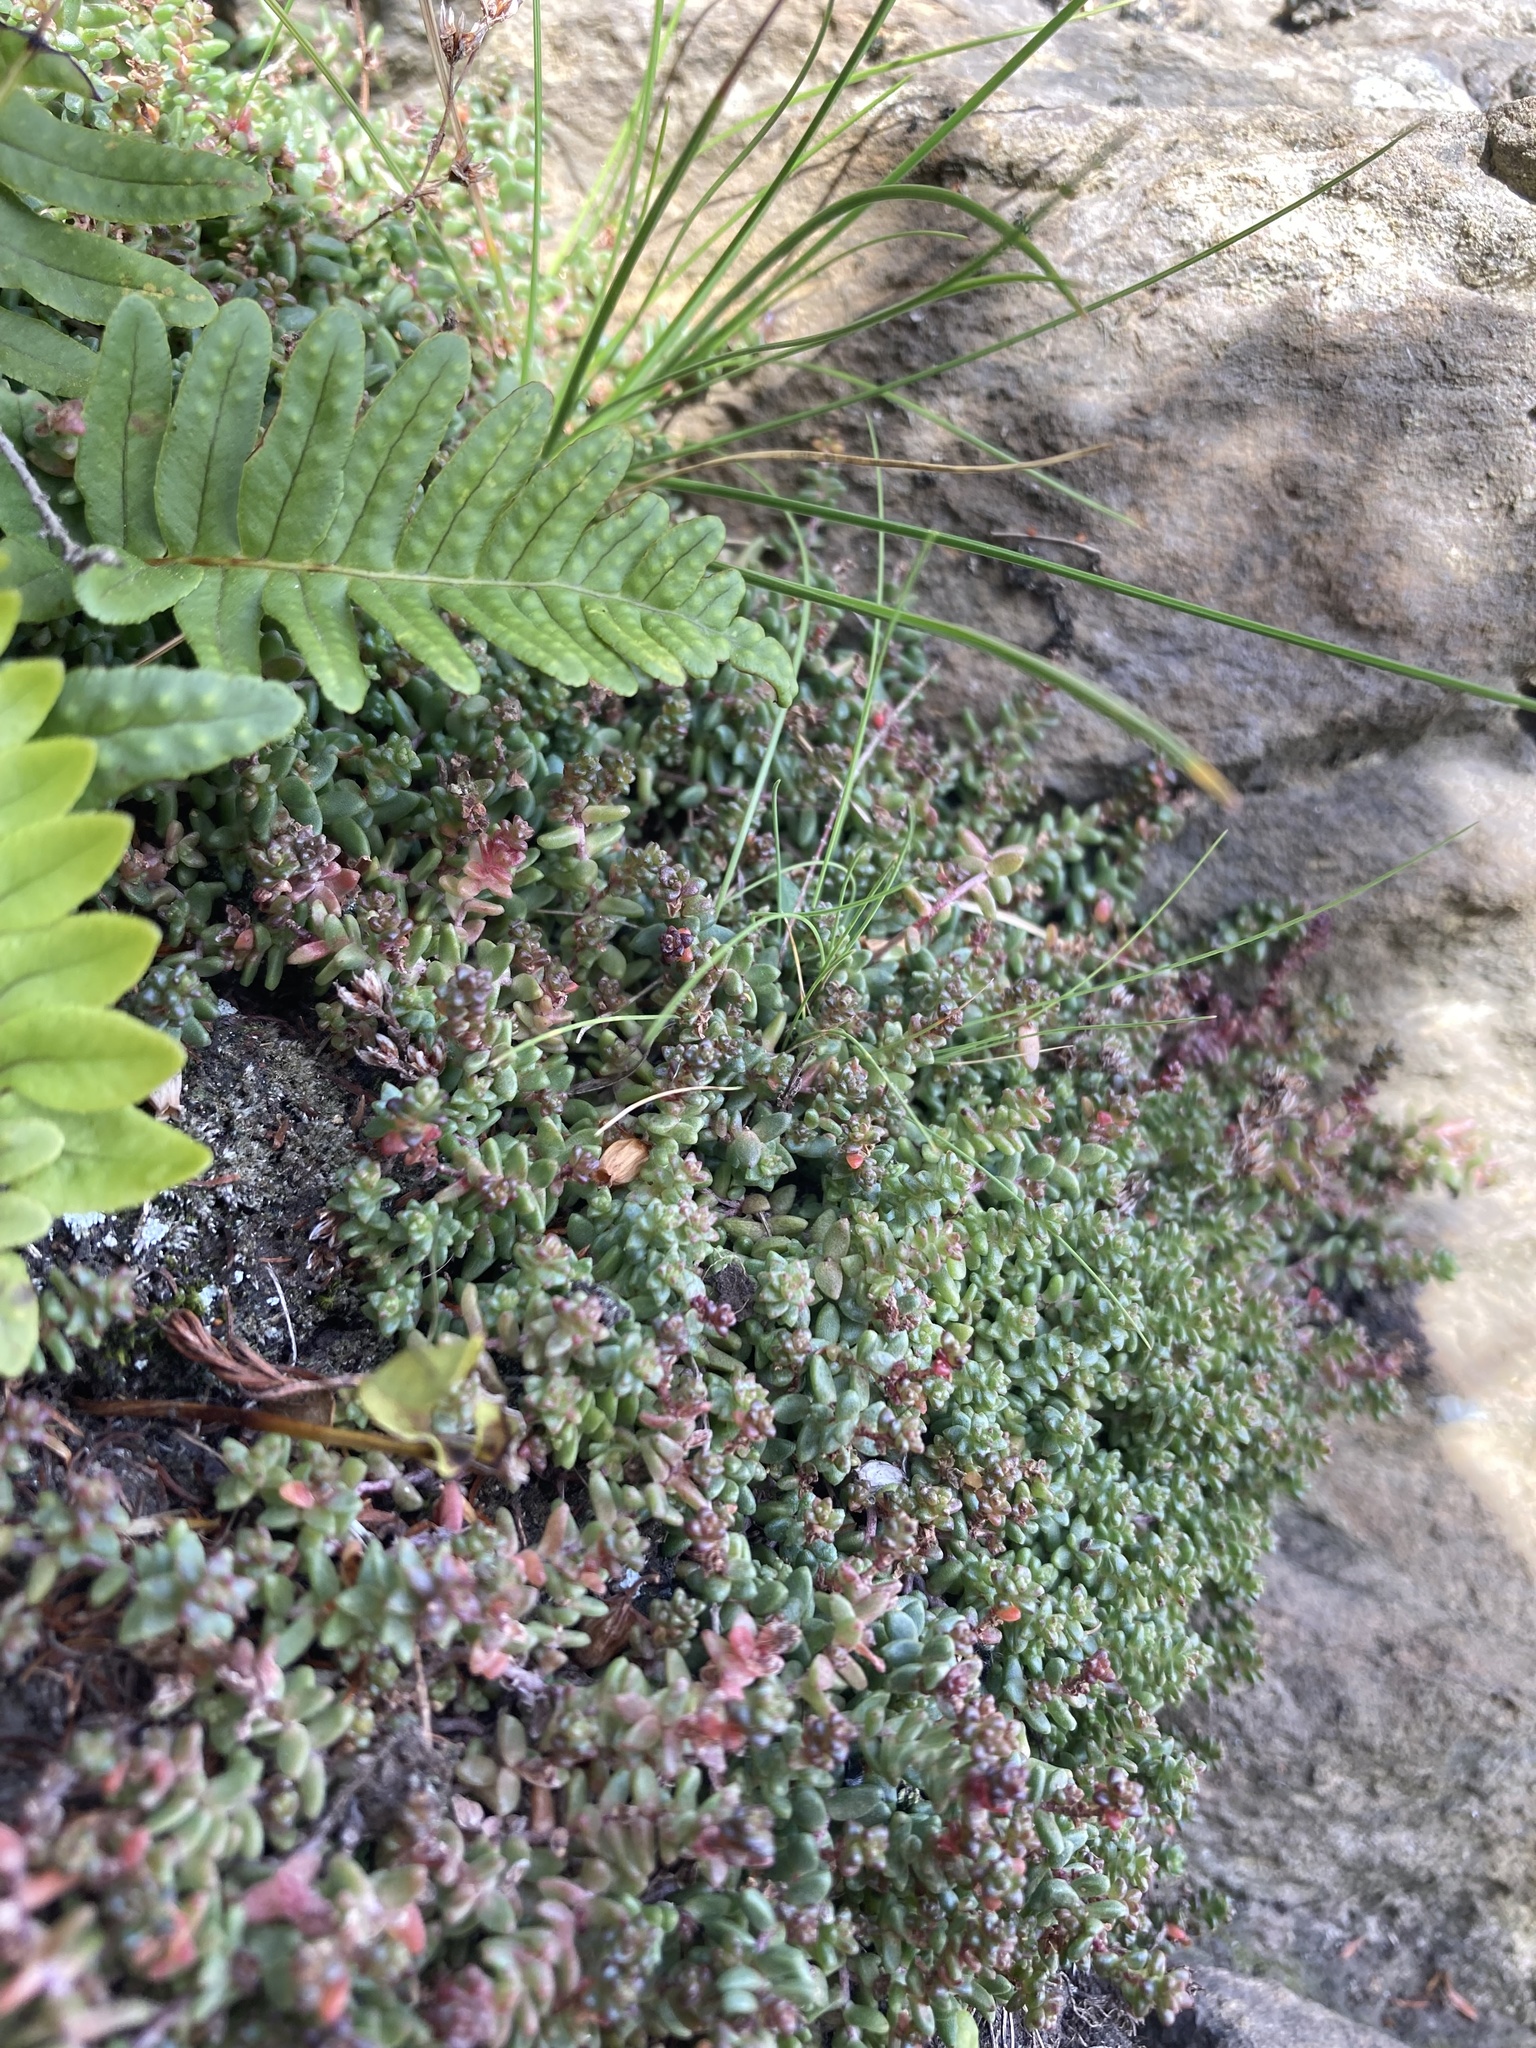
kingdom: Plantae
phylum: Tracheophyta
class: Magnoliopsida
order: Saxifragales
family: Crassulaceae
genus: Sedum
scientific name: Sedum anglicum
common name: English stonecrop
